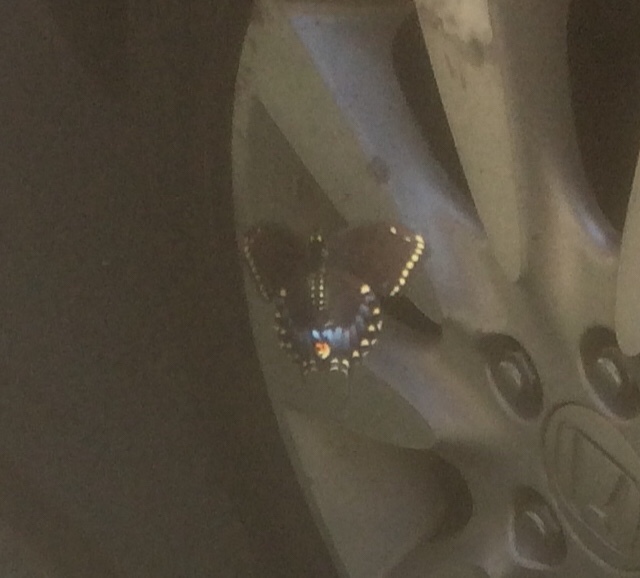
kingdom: Animalia
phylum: Arthropoda
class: Insecta
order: Lepidoptera
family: Papilionidae
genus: Papilio
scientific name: Papilio polyxenes
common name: Black swallowtail
